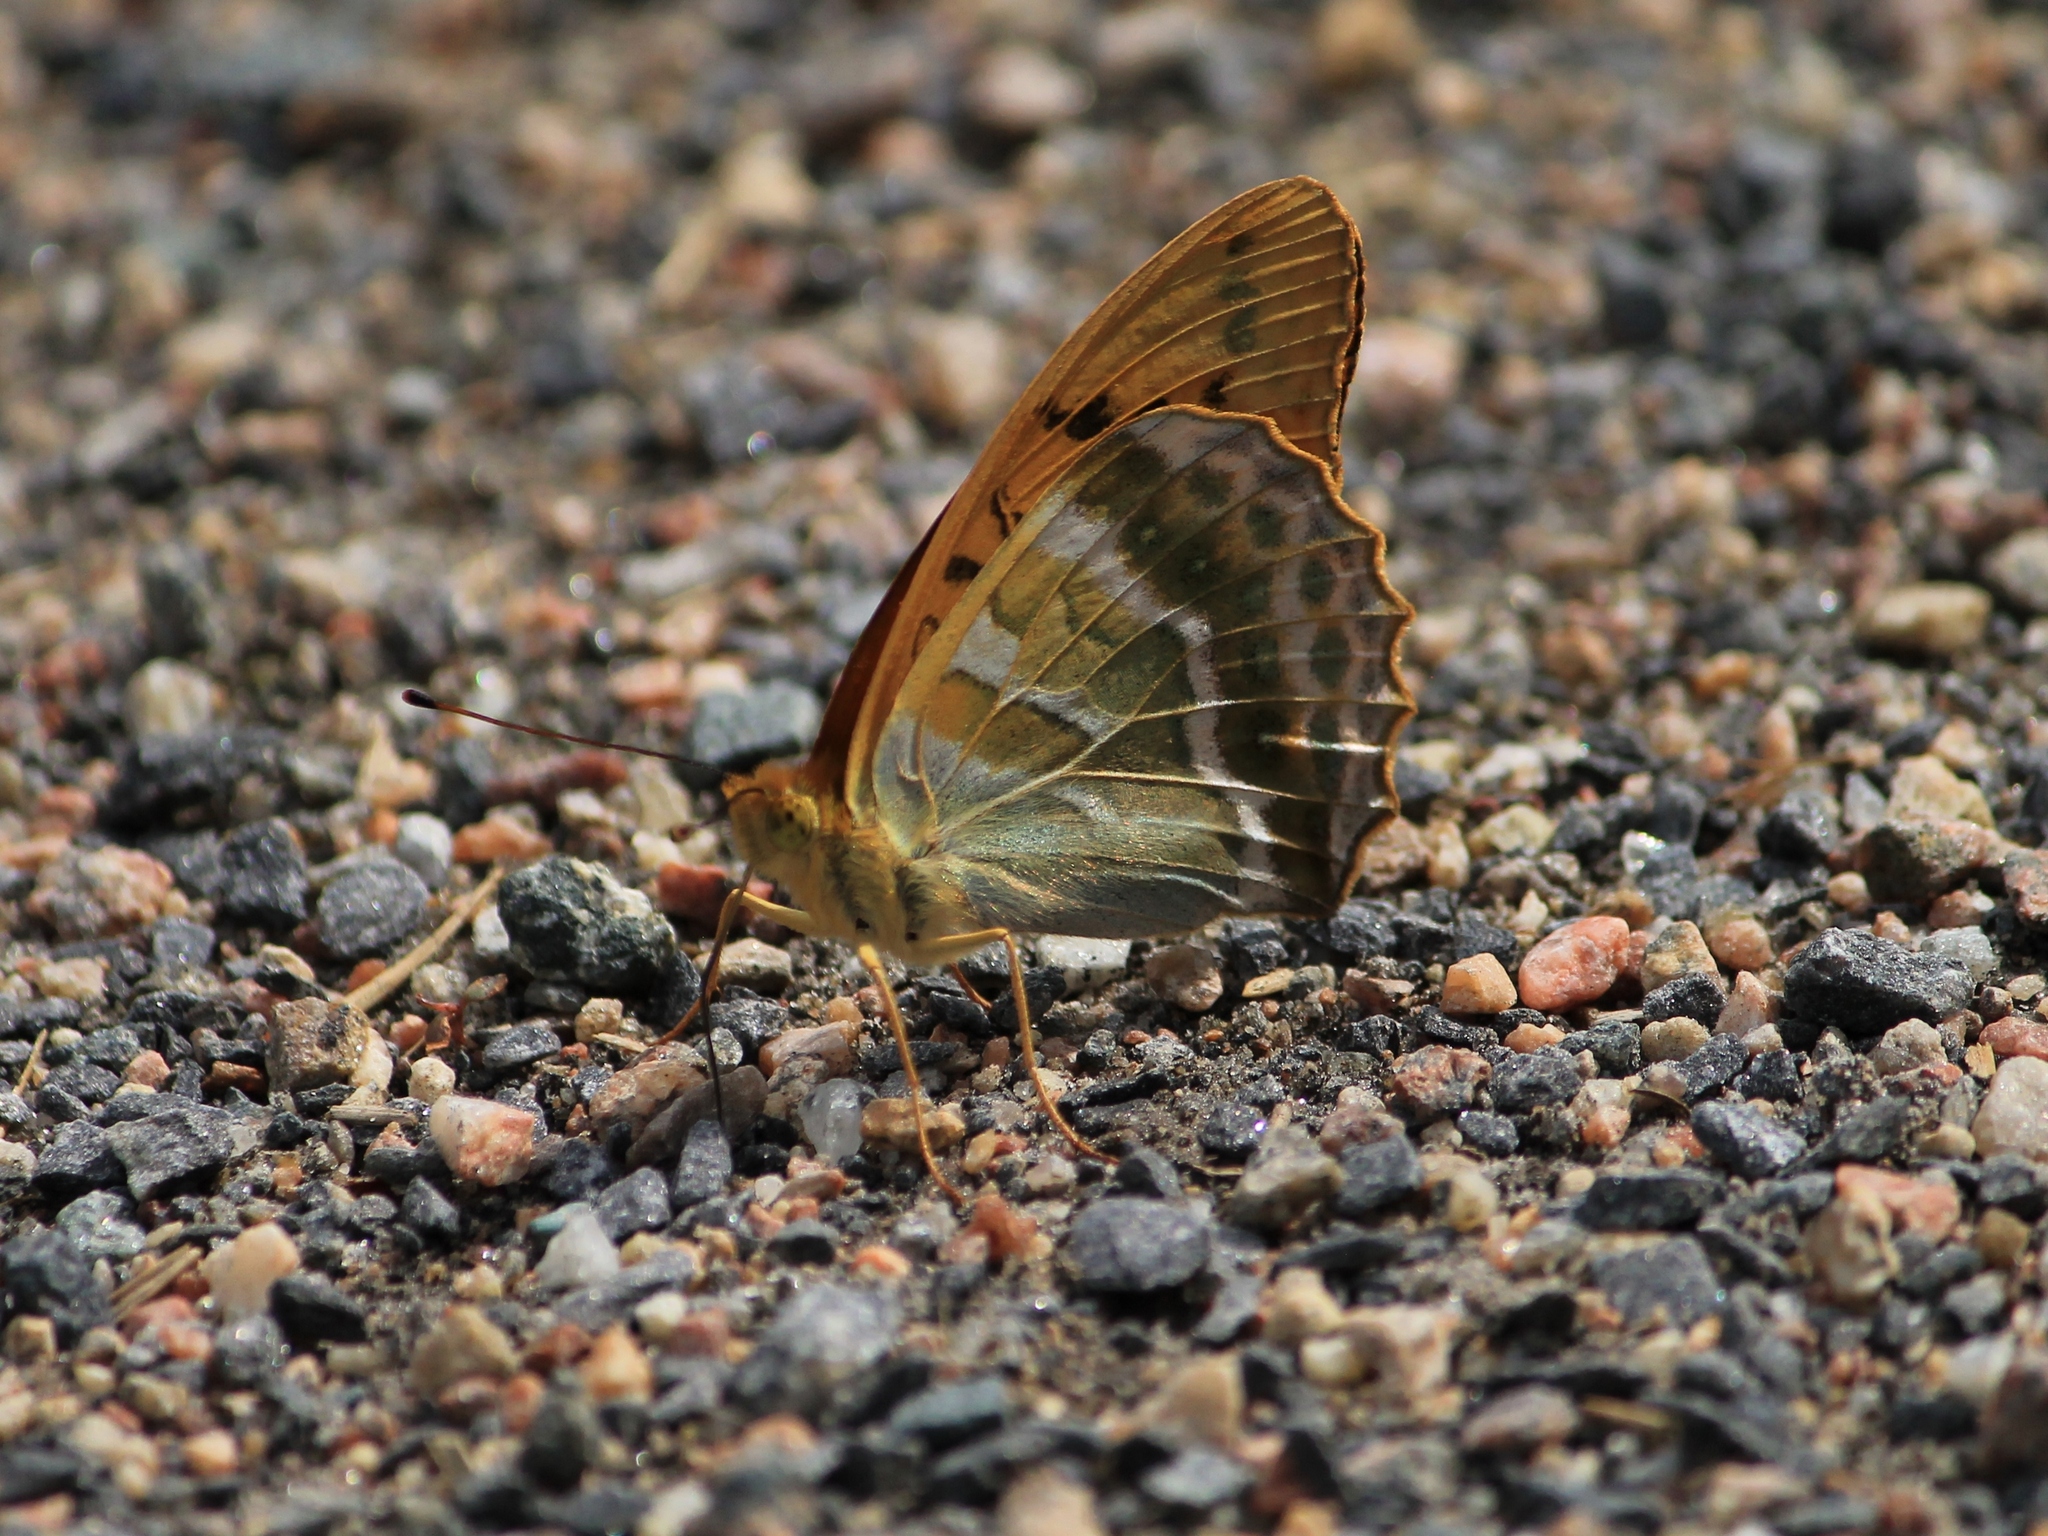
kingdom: Animalia
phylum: Arthropoda
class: Insecta
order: Lepidoptera
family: Nymphalidae
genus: Argynnis
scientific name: Argynnis paphia
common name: Silver-washed fritillary
